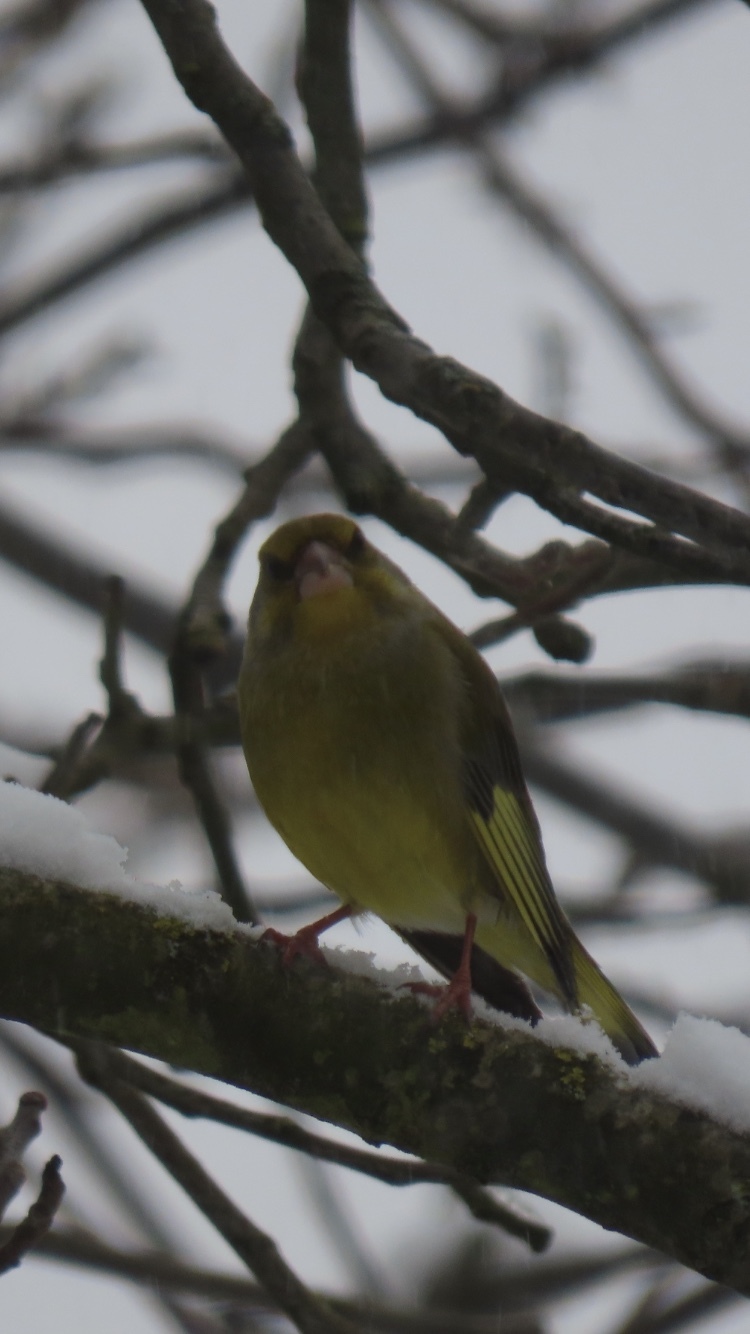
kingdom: Plantae
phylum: Tracheophyta
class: Liliopsida
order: Poales
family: Poaceae
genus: Chloris
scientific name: Chloris chloris
